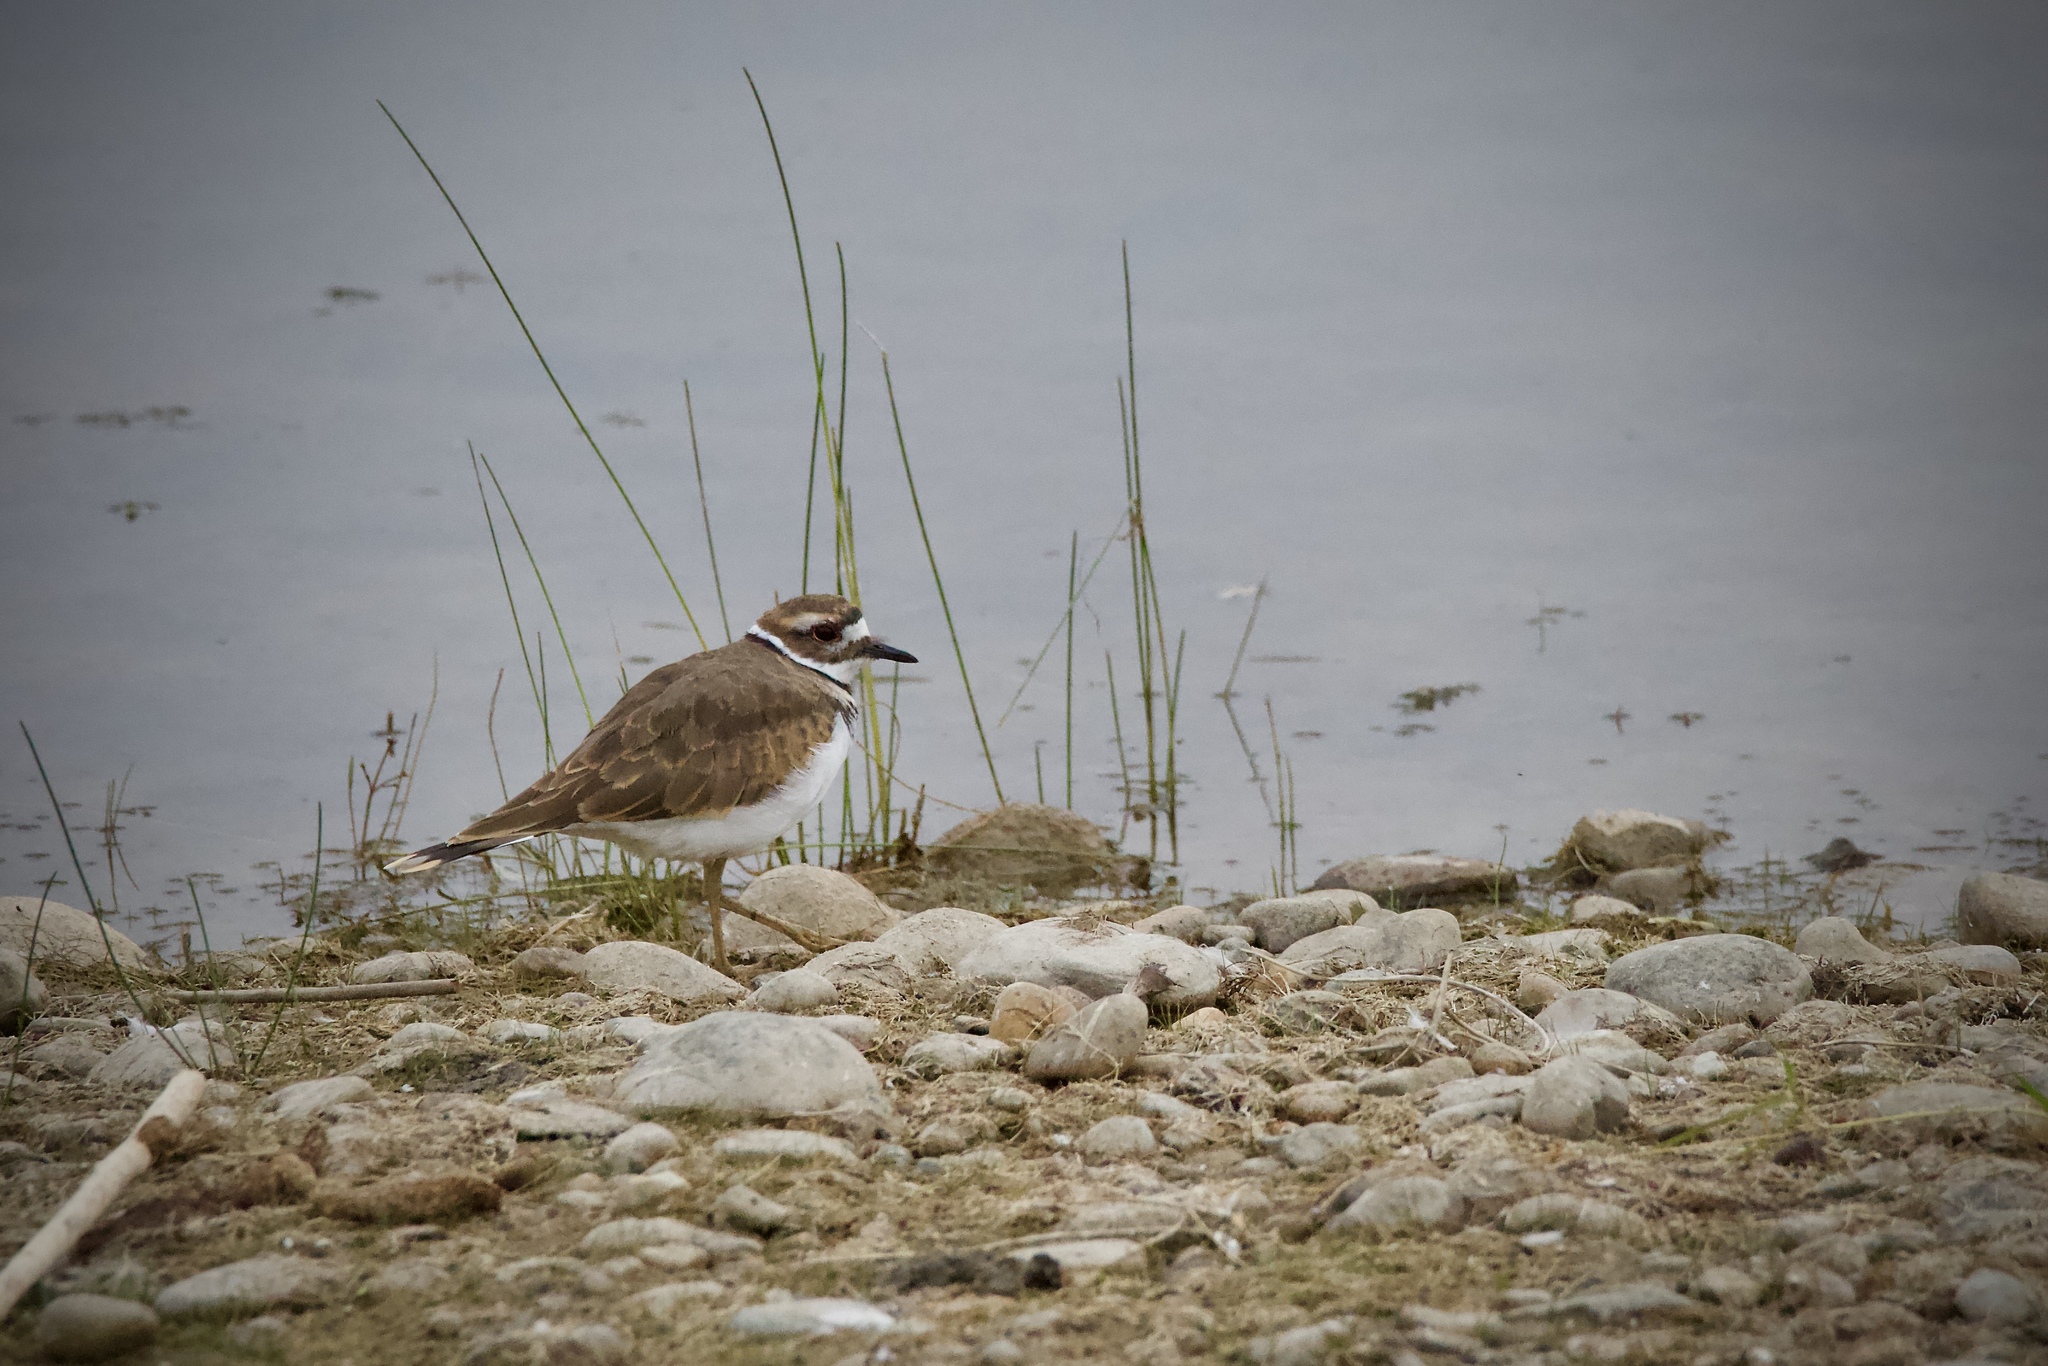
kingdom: Animalia
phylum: Chordata
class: Aves
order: Charadriiformes
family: Charadriidae
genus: Charadrius
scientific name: Charadrius vociferus
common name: Killdeer
